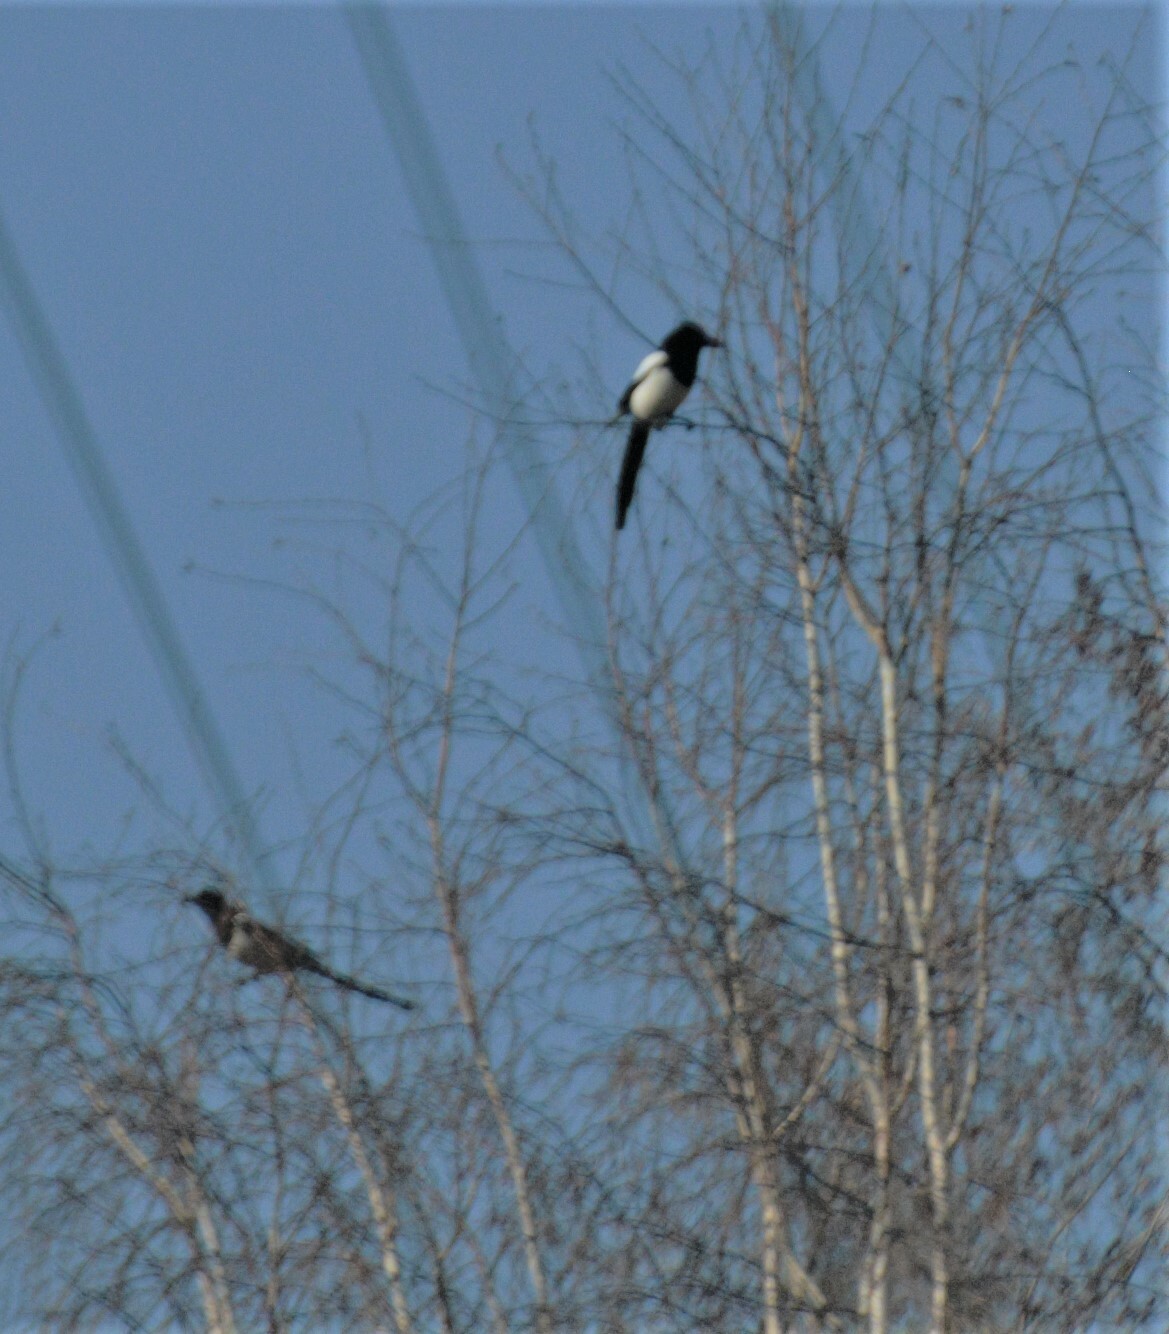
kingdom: Animalia
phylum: Chordata
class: Aves
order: Passeriformes
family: Corvidae
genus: Pica
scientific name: Pica pica
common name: Eurasian magpie
